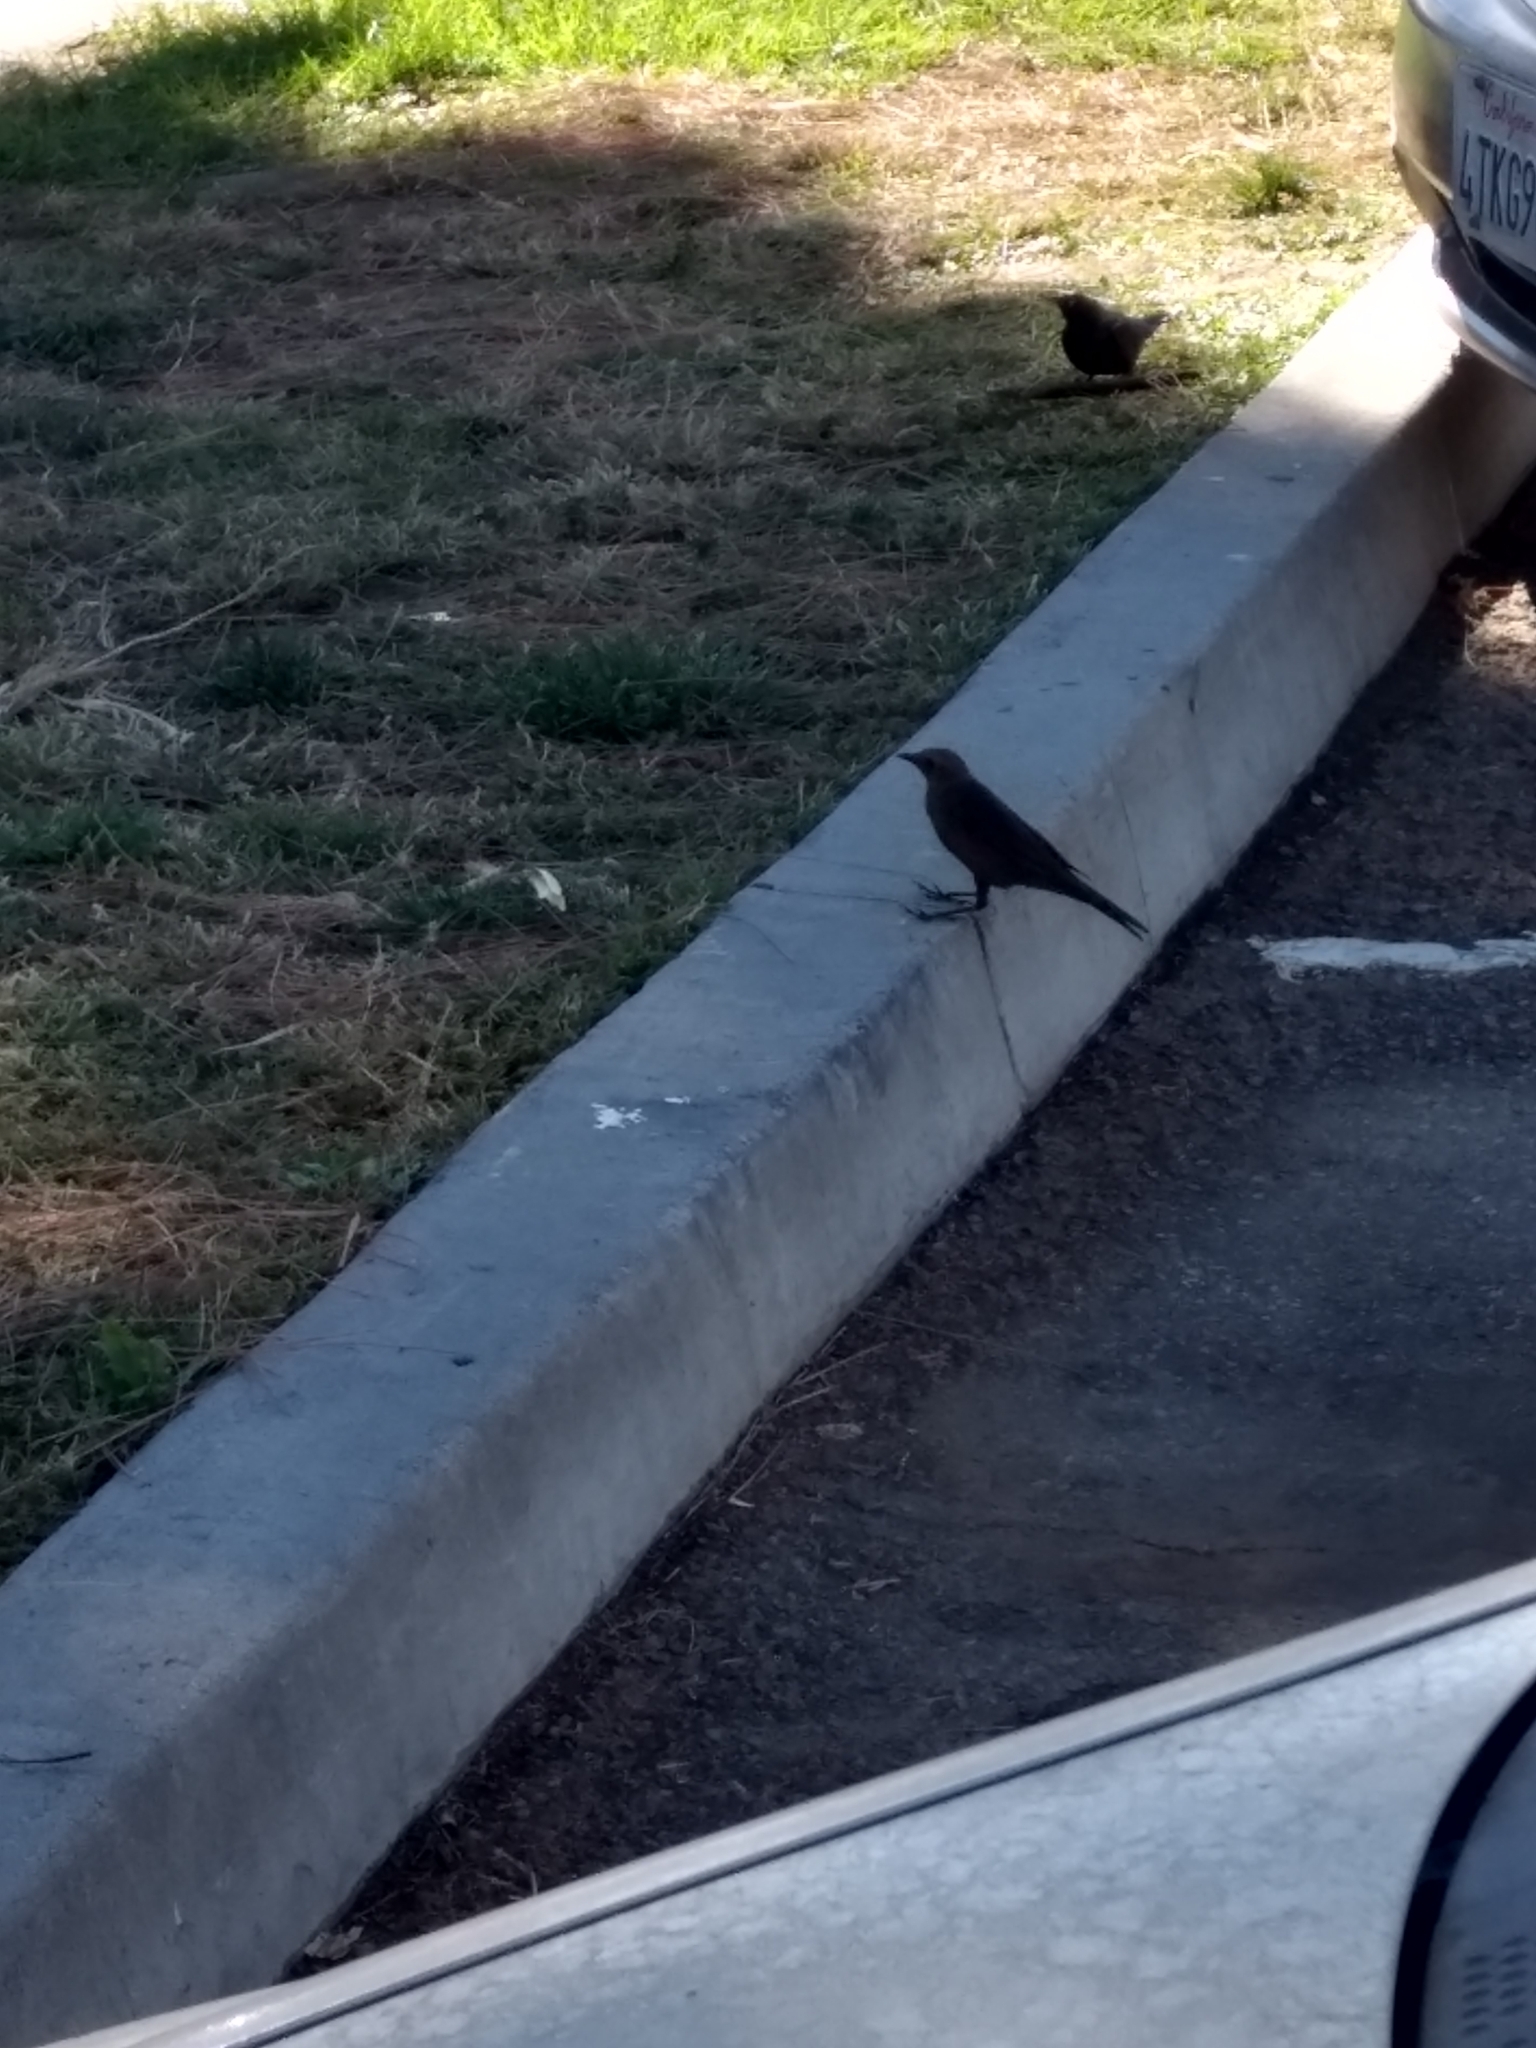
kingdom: Animalia
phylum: Chordata
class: Aves
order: Passeriformes
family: Icteridae
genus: Euphagus
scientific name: Euphagus cyanocephalus
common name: Brewer's blackbird
